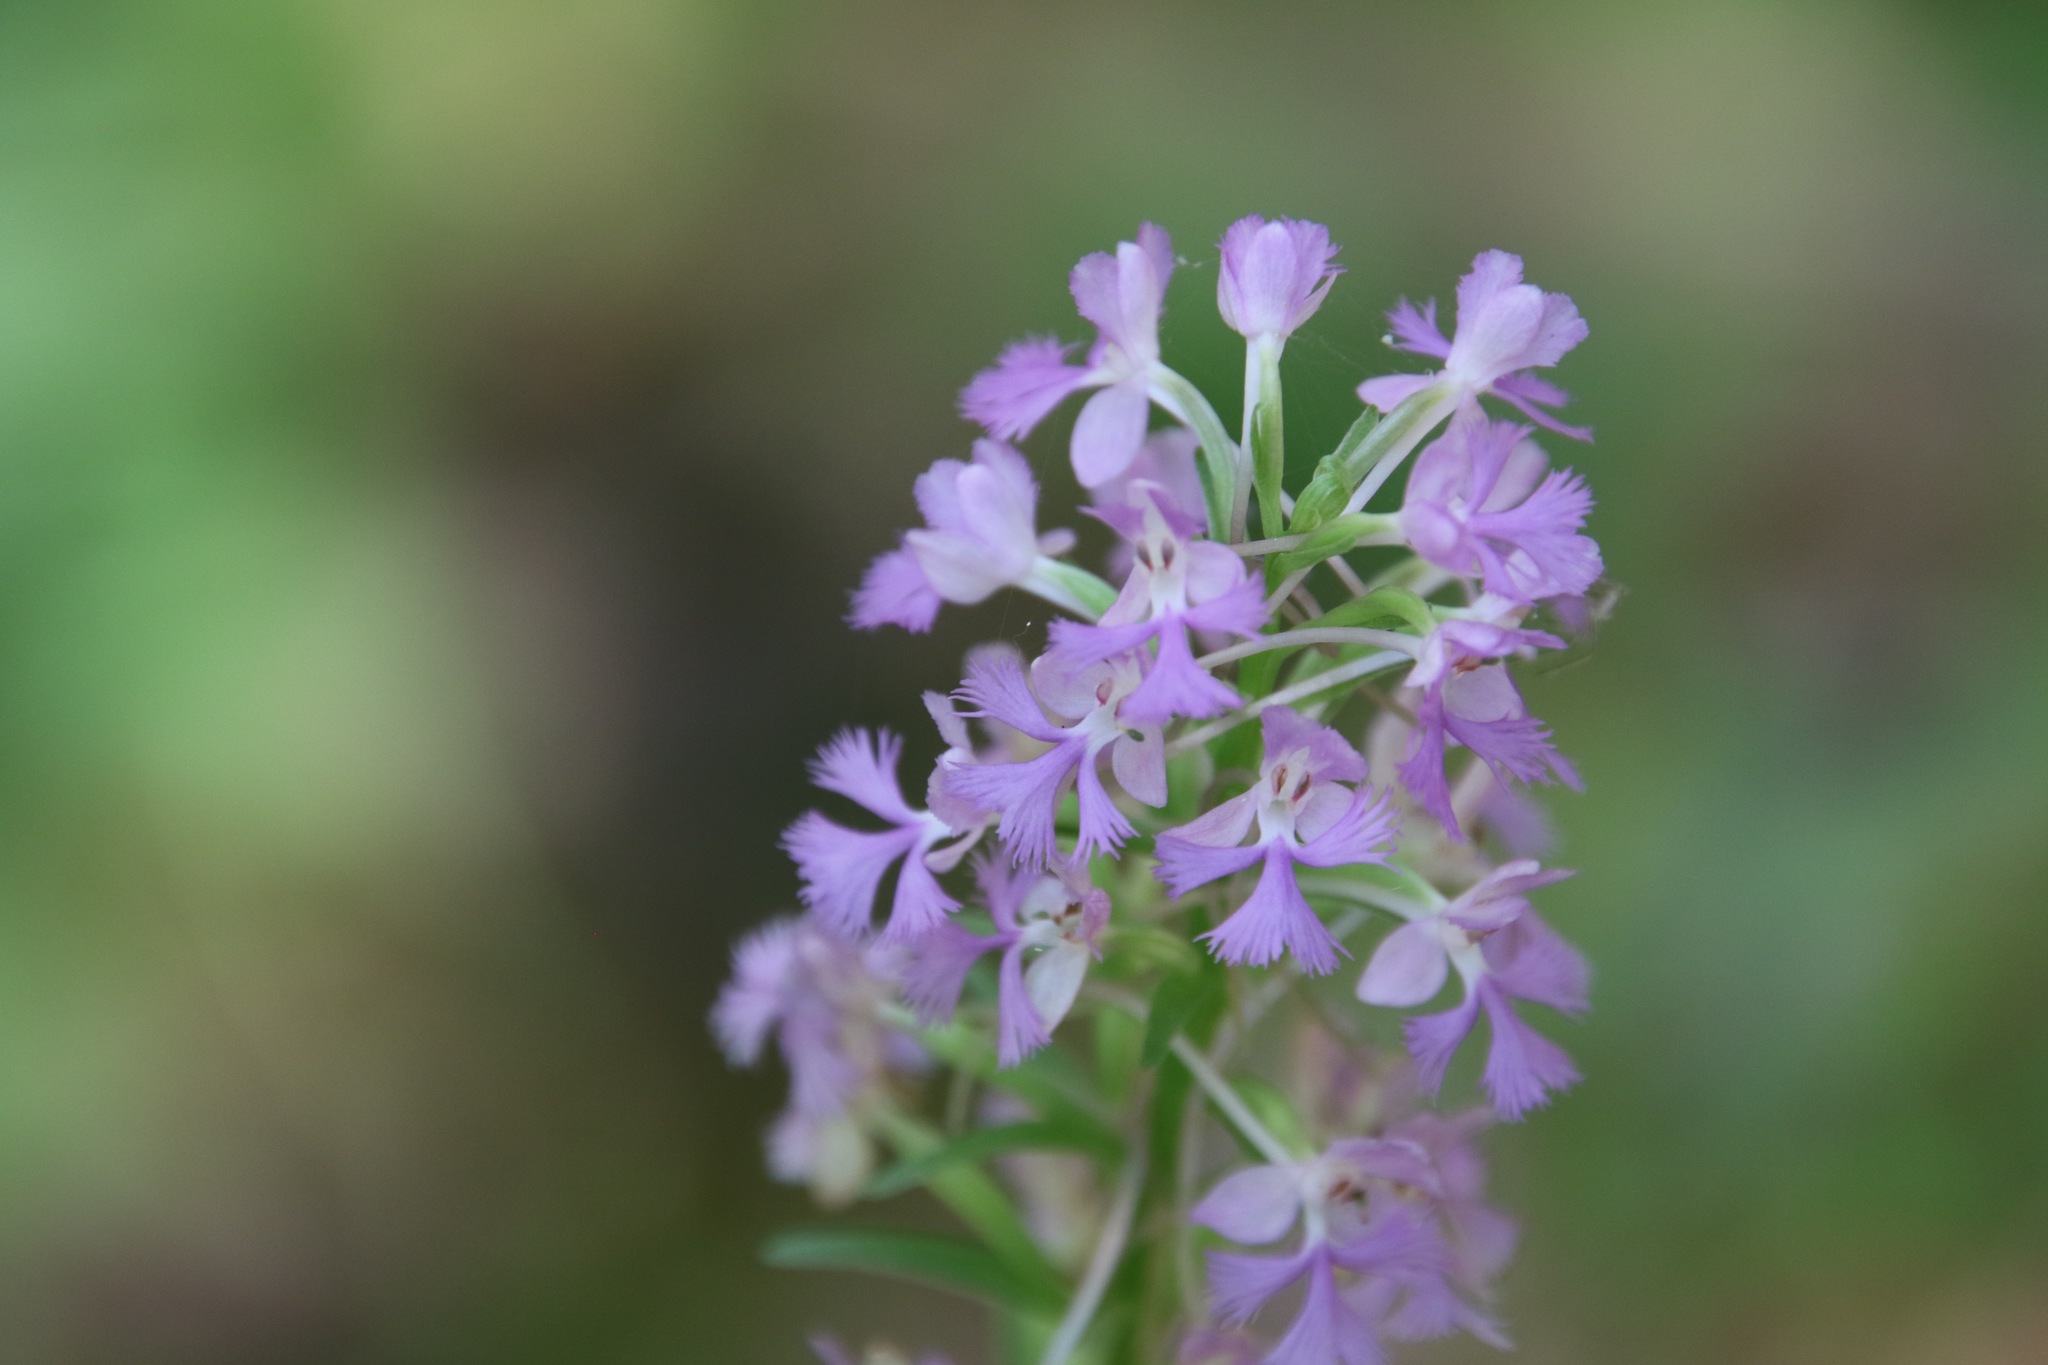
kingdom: Plantae
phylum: Tracheophyta
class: Liliopsida
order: Asparagales
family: Orchidaceae
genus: Platanthera
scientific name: Platanthera psycodes
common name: Lesser purple fringed orchid
